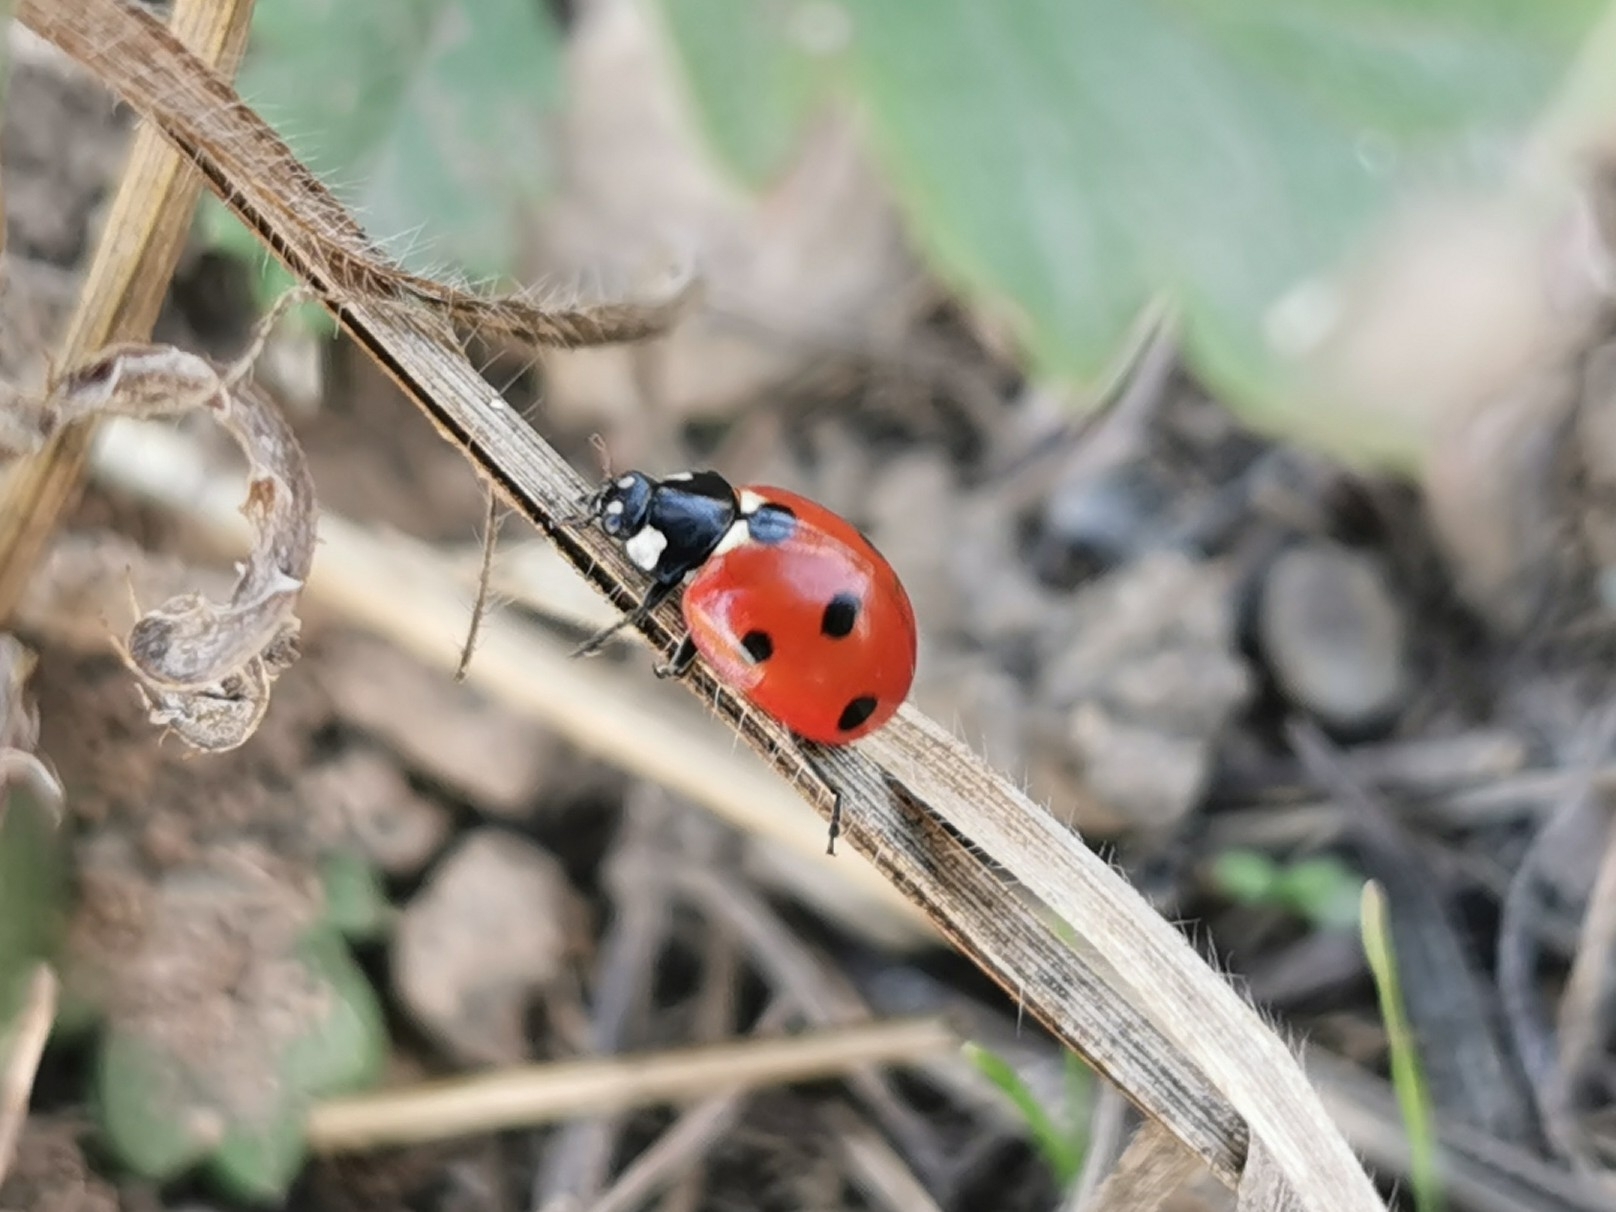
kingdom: Animalia
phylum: Arthropoda
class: Insecta
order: Coleoptera
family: Coccinellidae
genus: Coccinella
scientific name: Coccinella septempunctata
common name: Sevenspotted lady beetle
